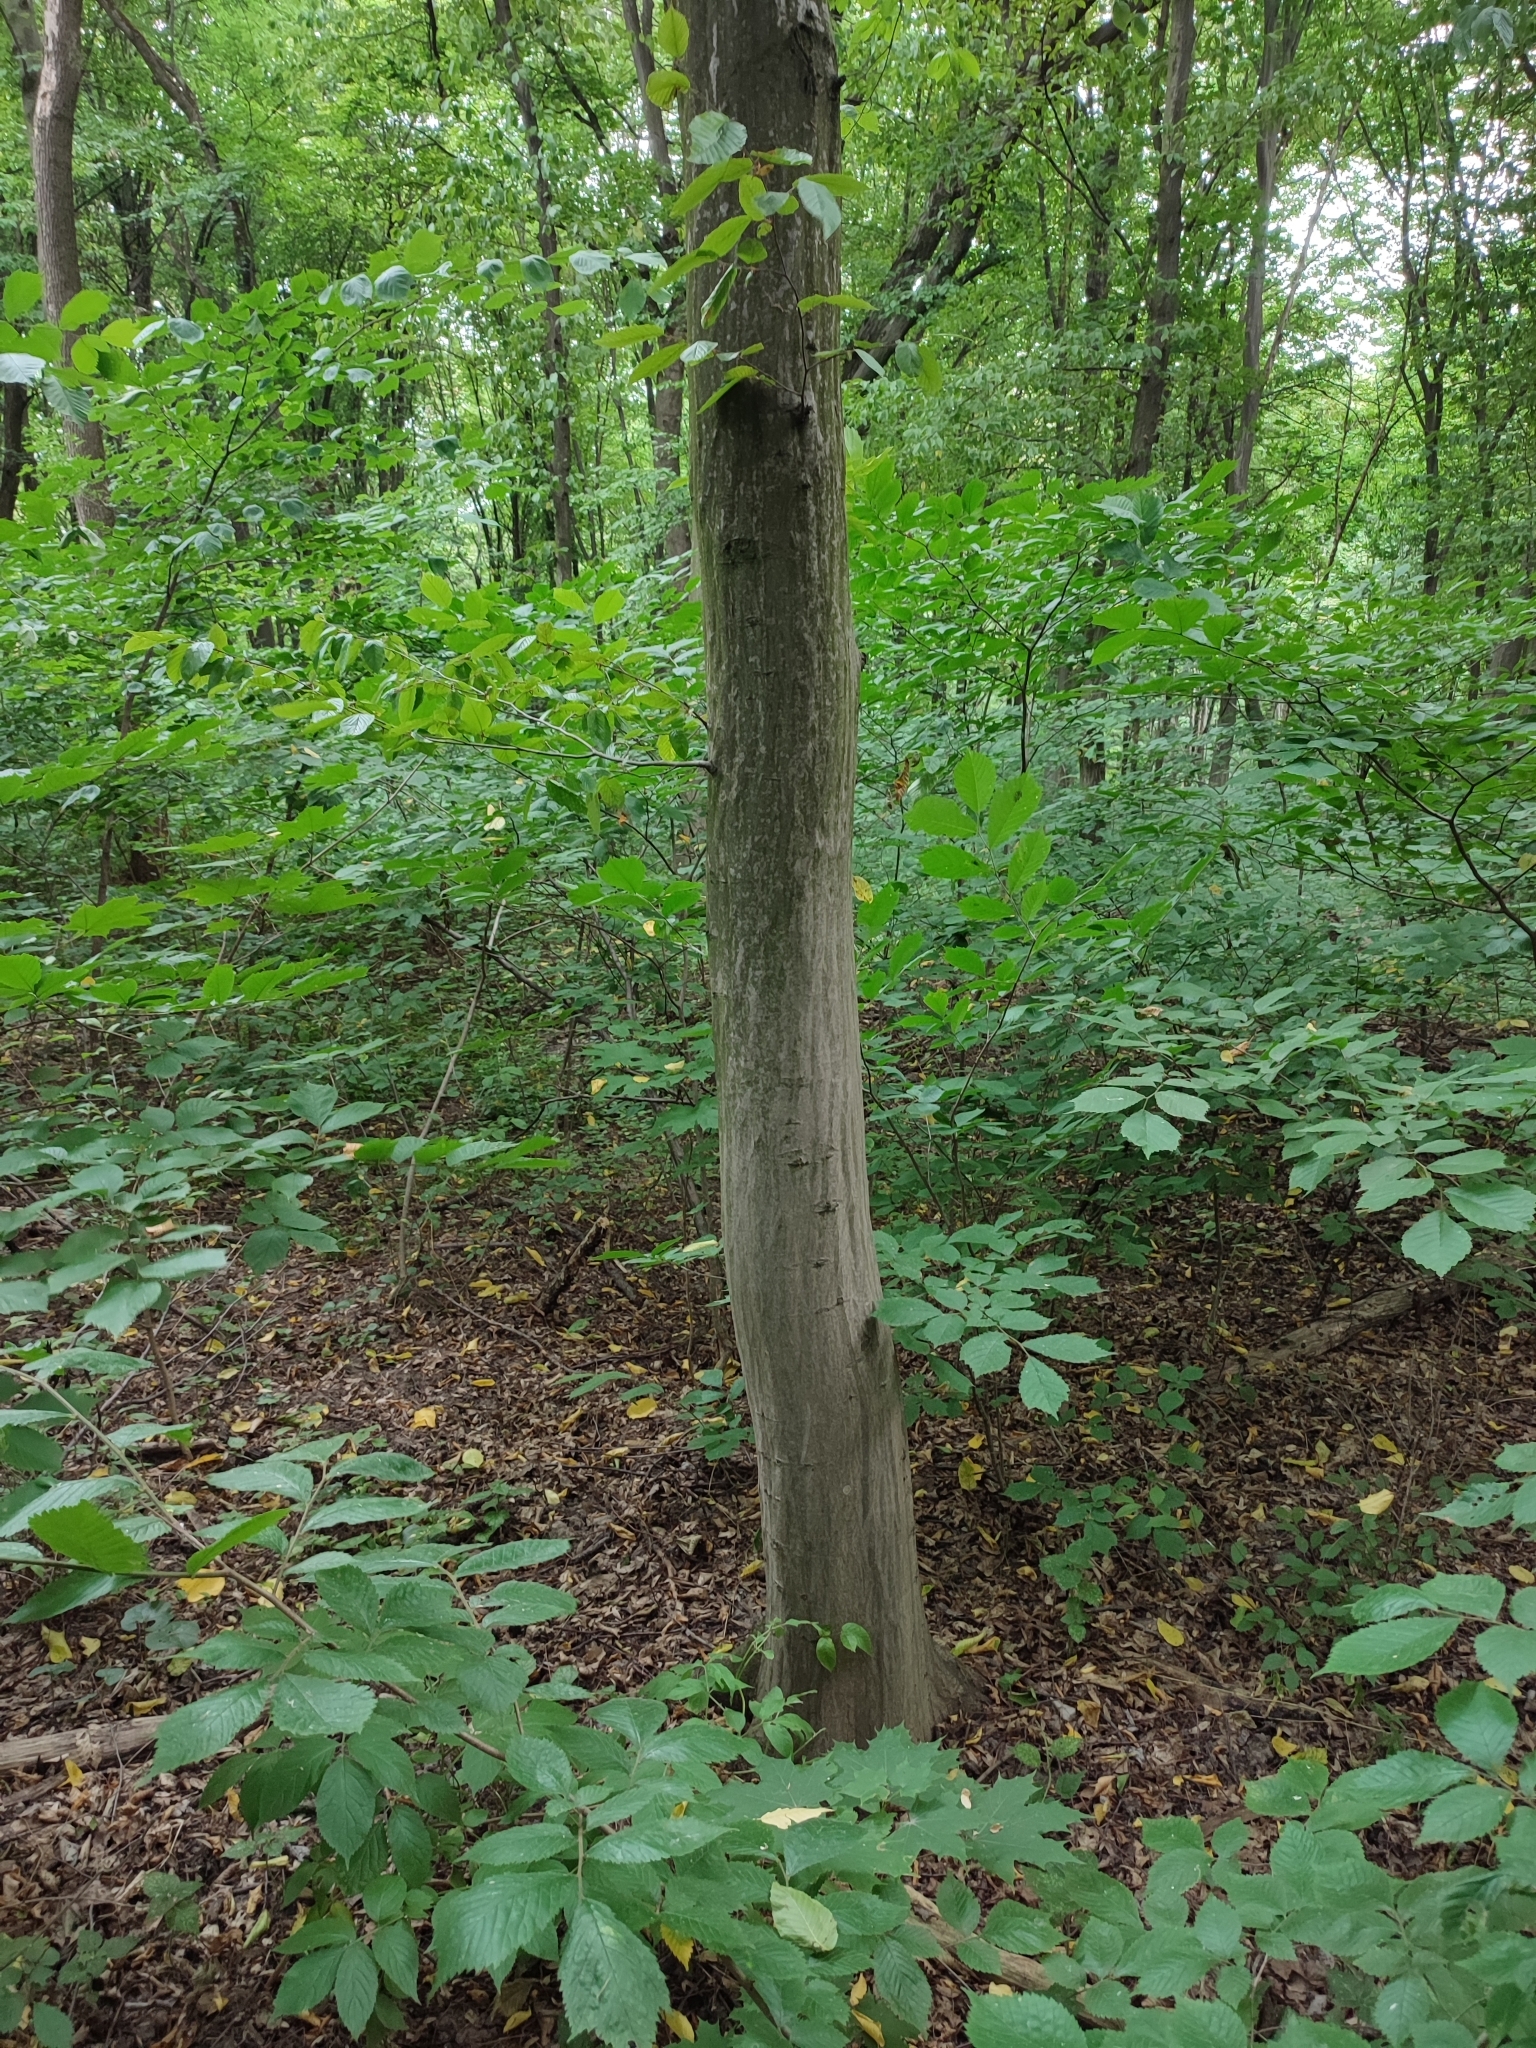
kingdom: Plantae
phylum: Tracheophyta
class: Magnoliopsida
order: Fagales
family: Betulaceae
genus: Carpinus
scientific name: Carpinus betulus
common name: Hornbeam
